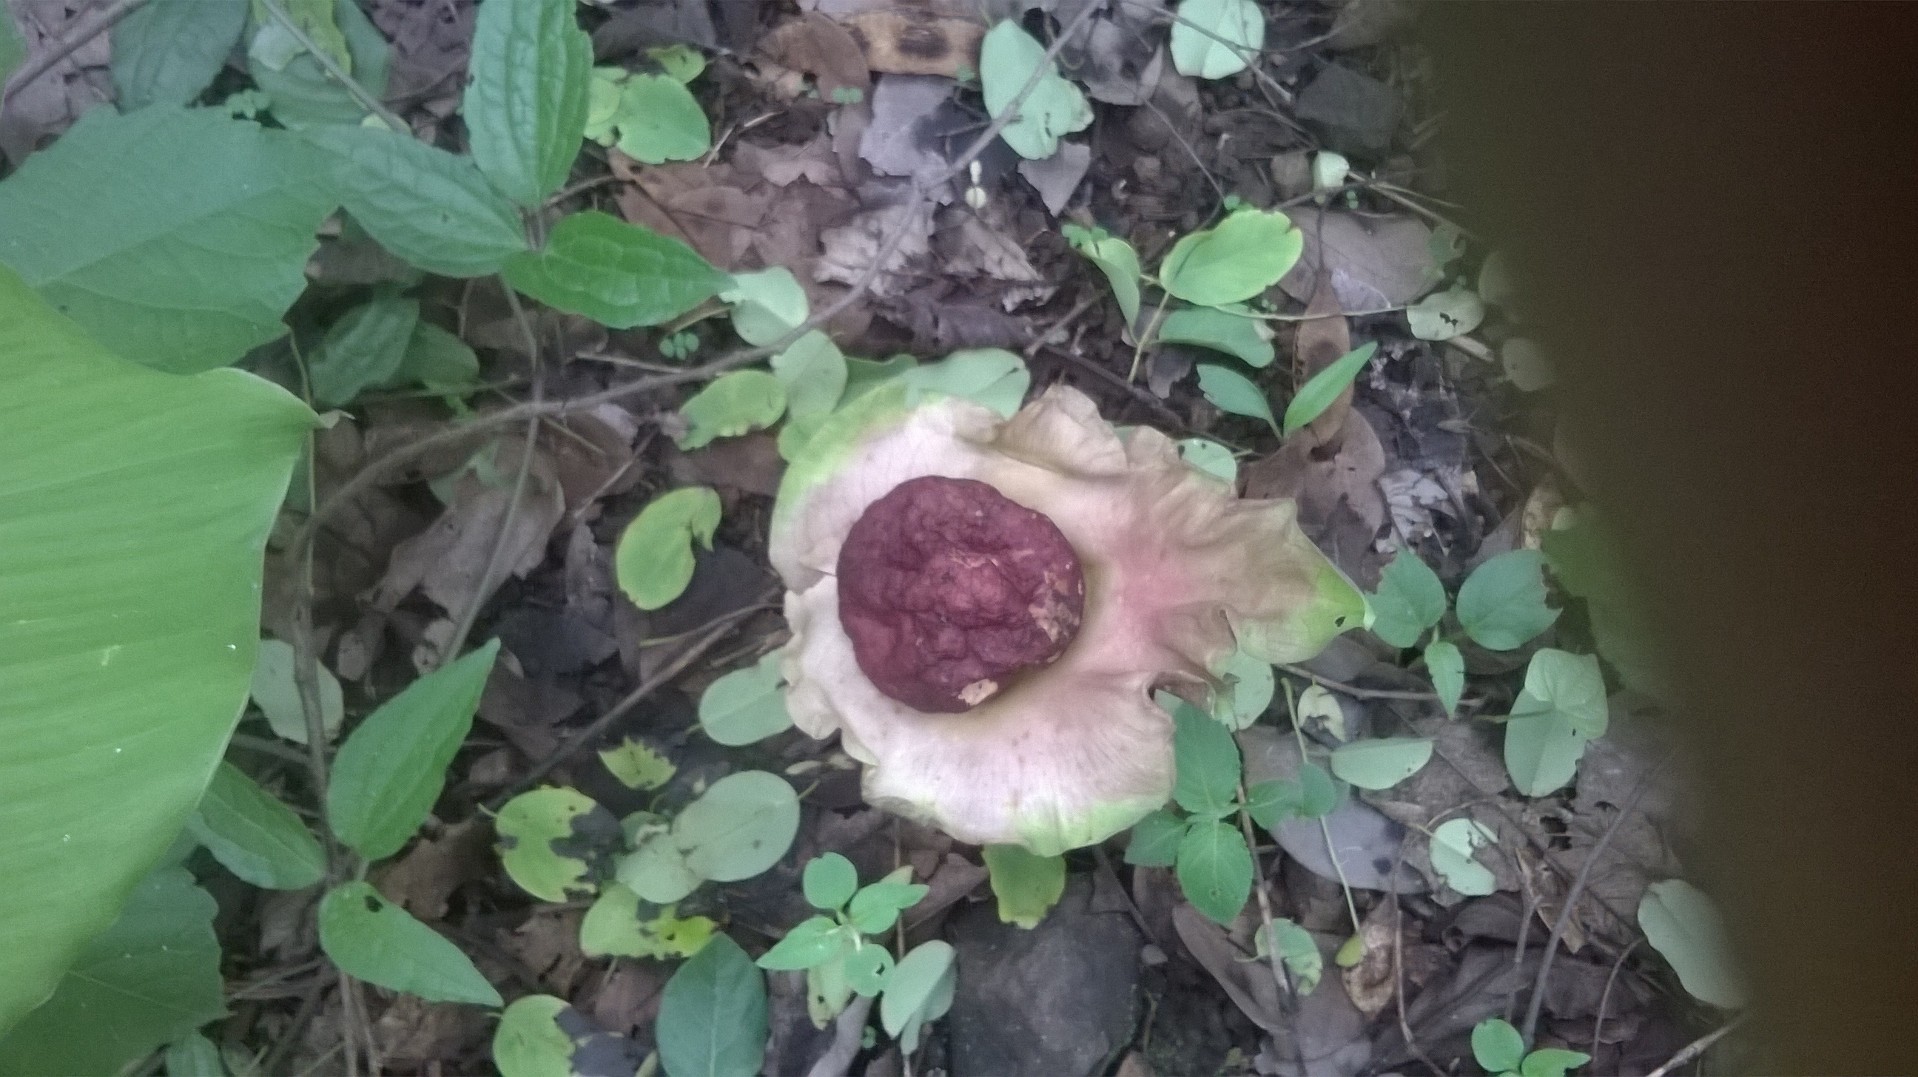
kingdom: Plantae
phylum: Tracheophyta
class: Liliopsida
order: Alismatales
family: Araceae
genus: Amorphophallus
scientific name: Amorphophallus paeoniifolius
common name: Telinga-potato
